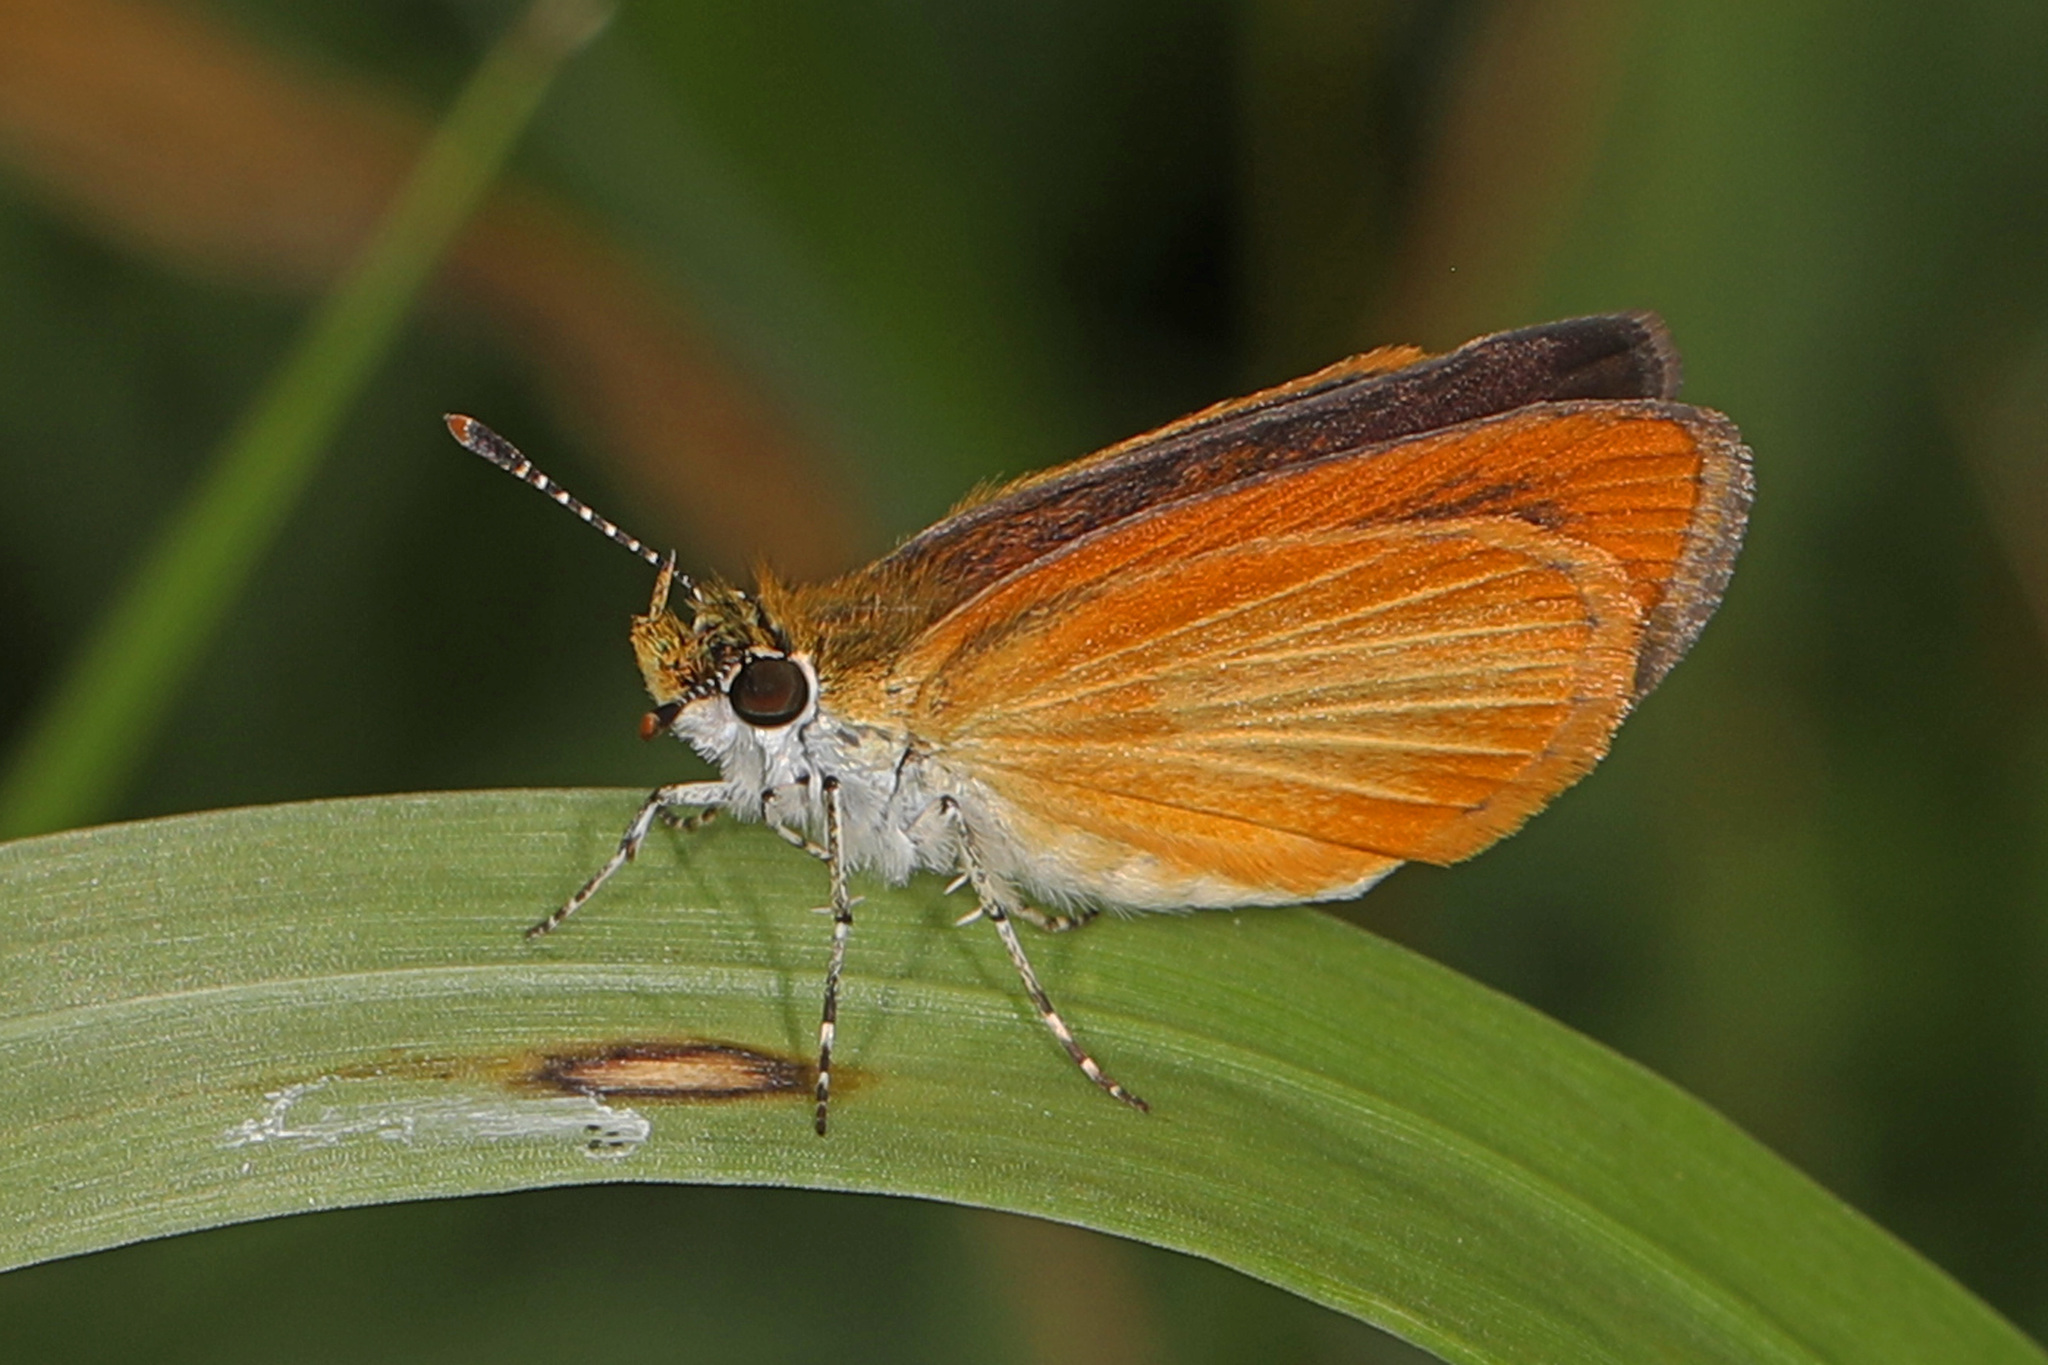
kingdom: Animalia
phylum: Arthropoda
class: Insecta
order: Lepidoptera
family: Hesperiidae
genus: Ancyloxypha
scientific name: Ancyloxypha numitor
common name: Least skipper
